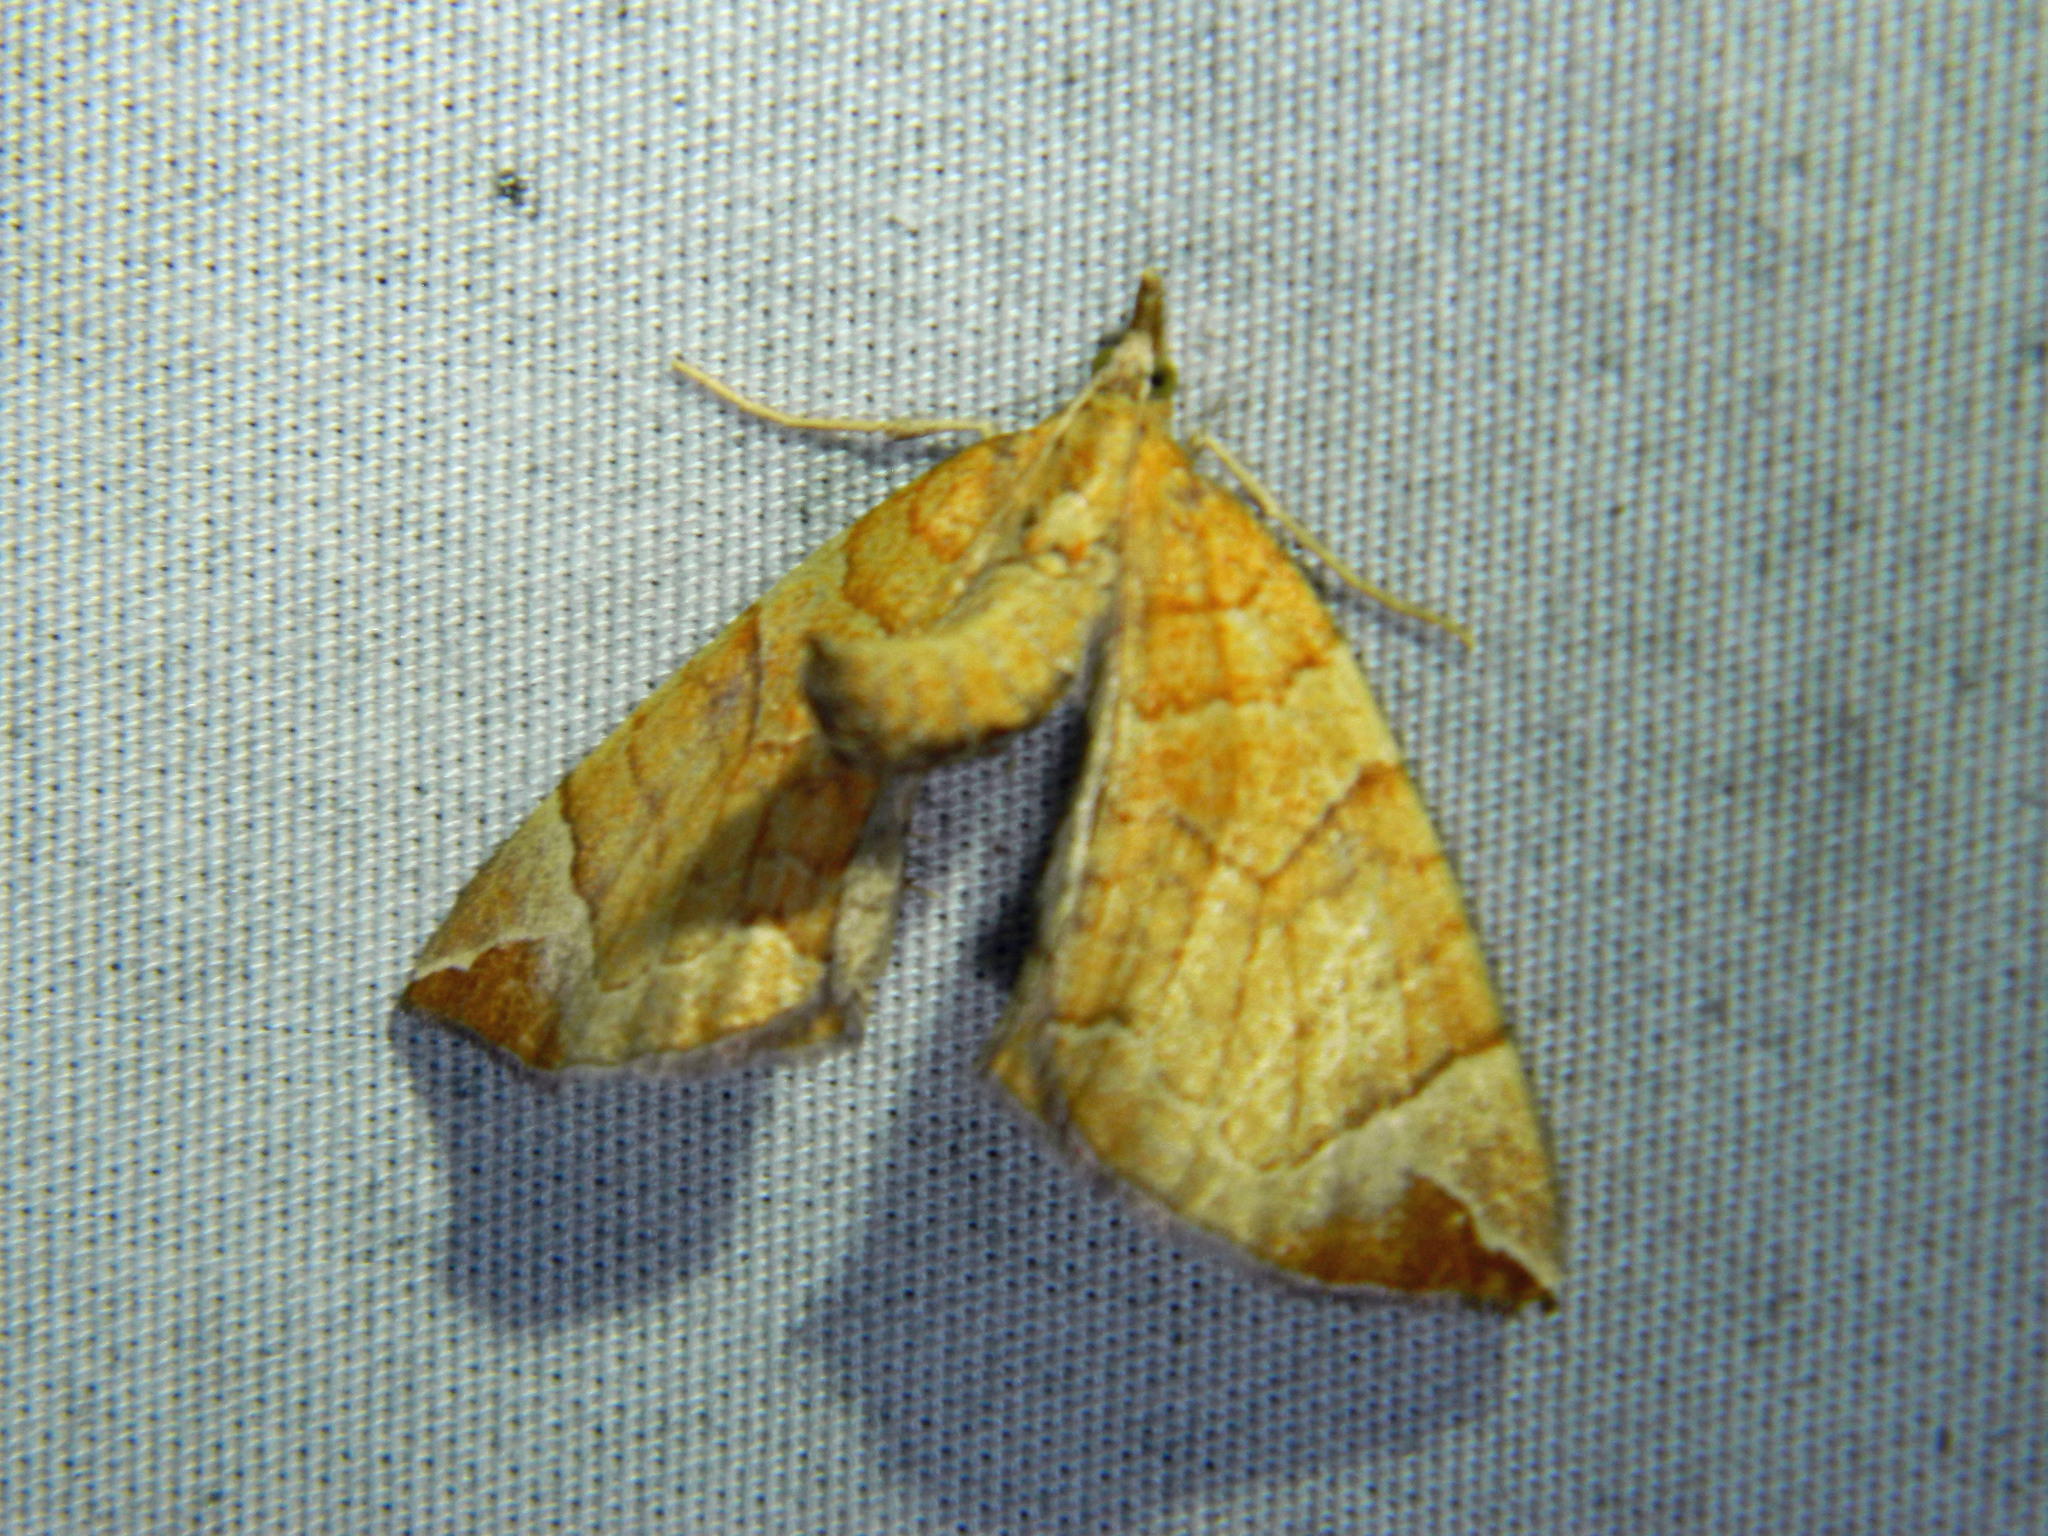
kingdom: Animalia
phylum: Arthropoda
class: Insecta
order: Lepidoptera
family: Geometridae
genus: Eulithis
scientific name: Eulithis testata
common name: Chevron
